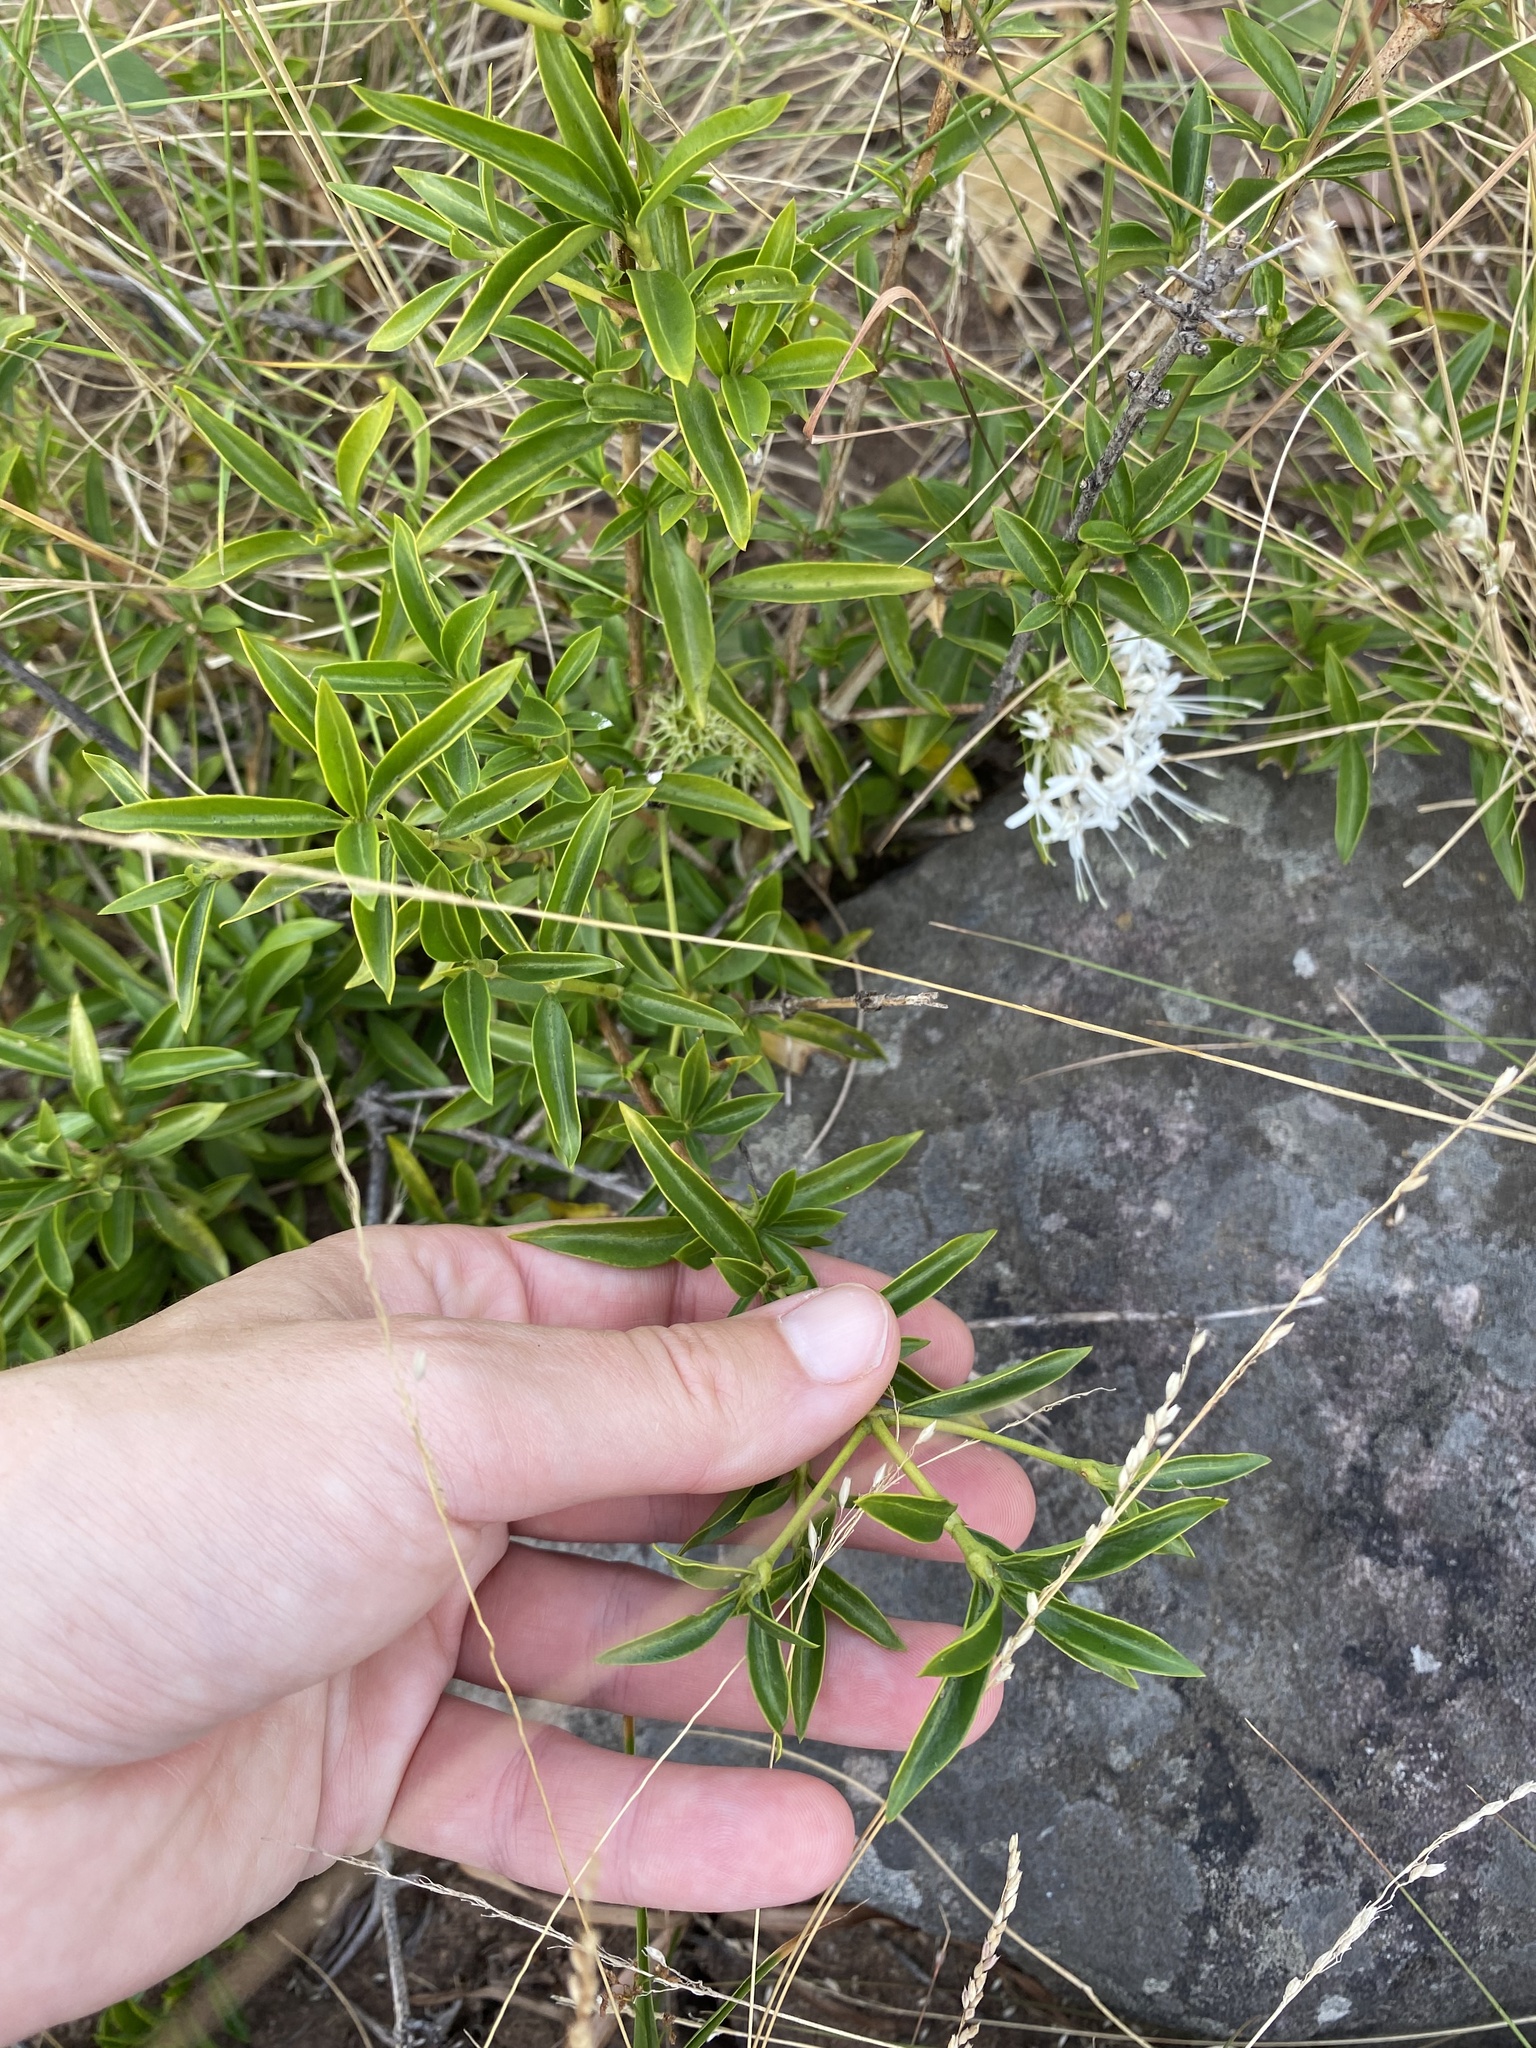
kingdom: Plantae
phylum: Tracheophyta
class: Magnoliopsida
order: Gentianales
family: Rubiaceae
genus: Pavetta
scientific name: Pavetta lanceolata
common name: Weeping brides-bush
